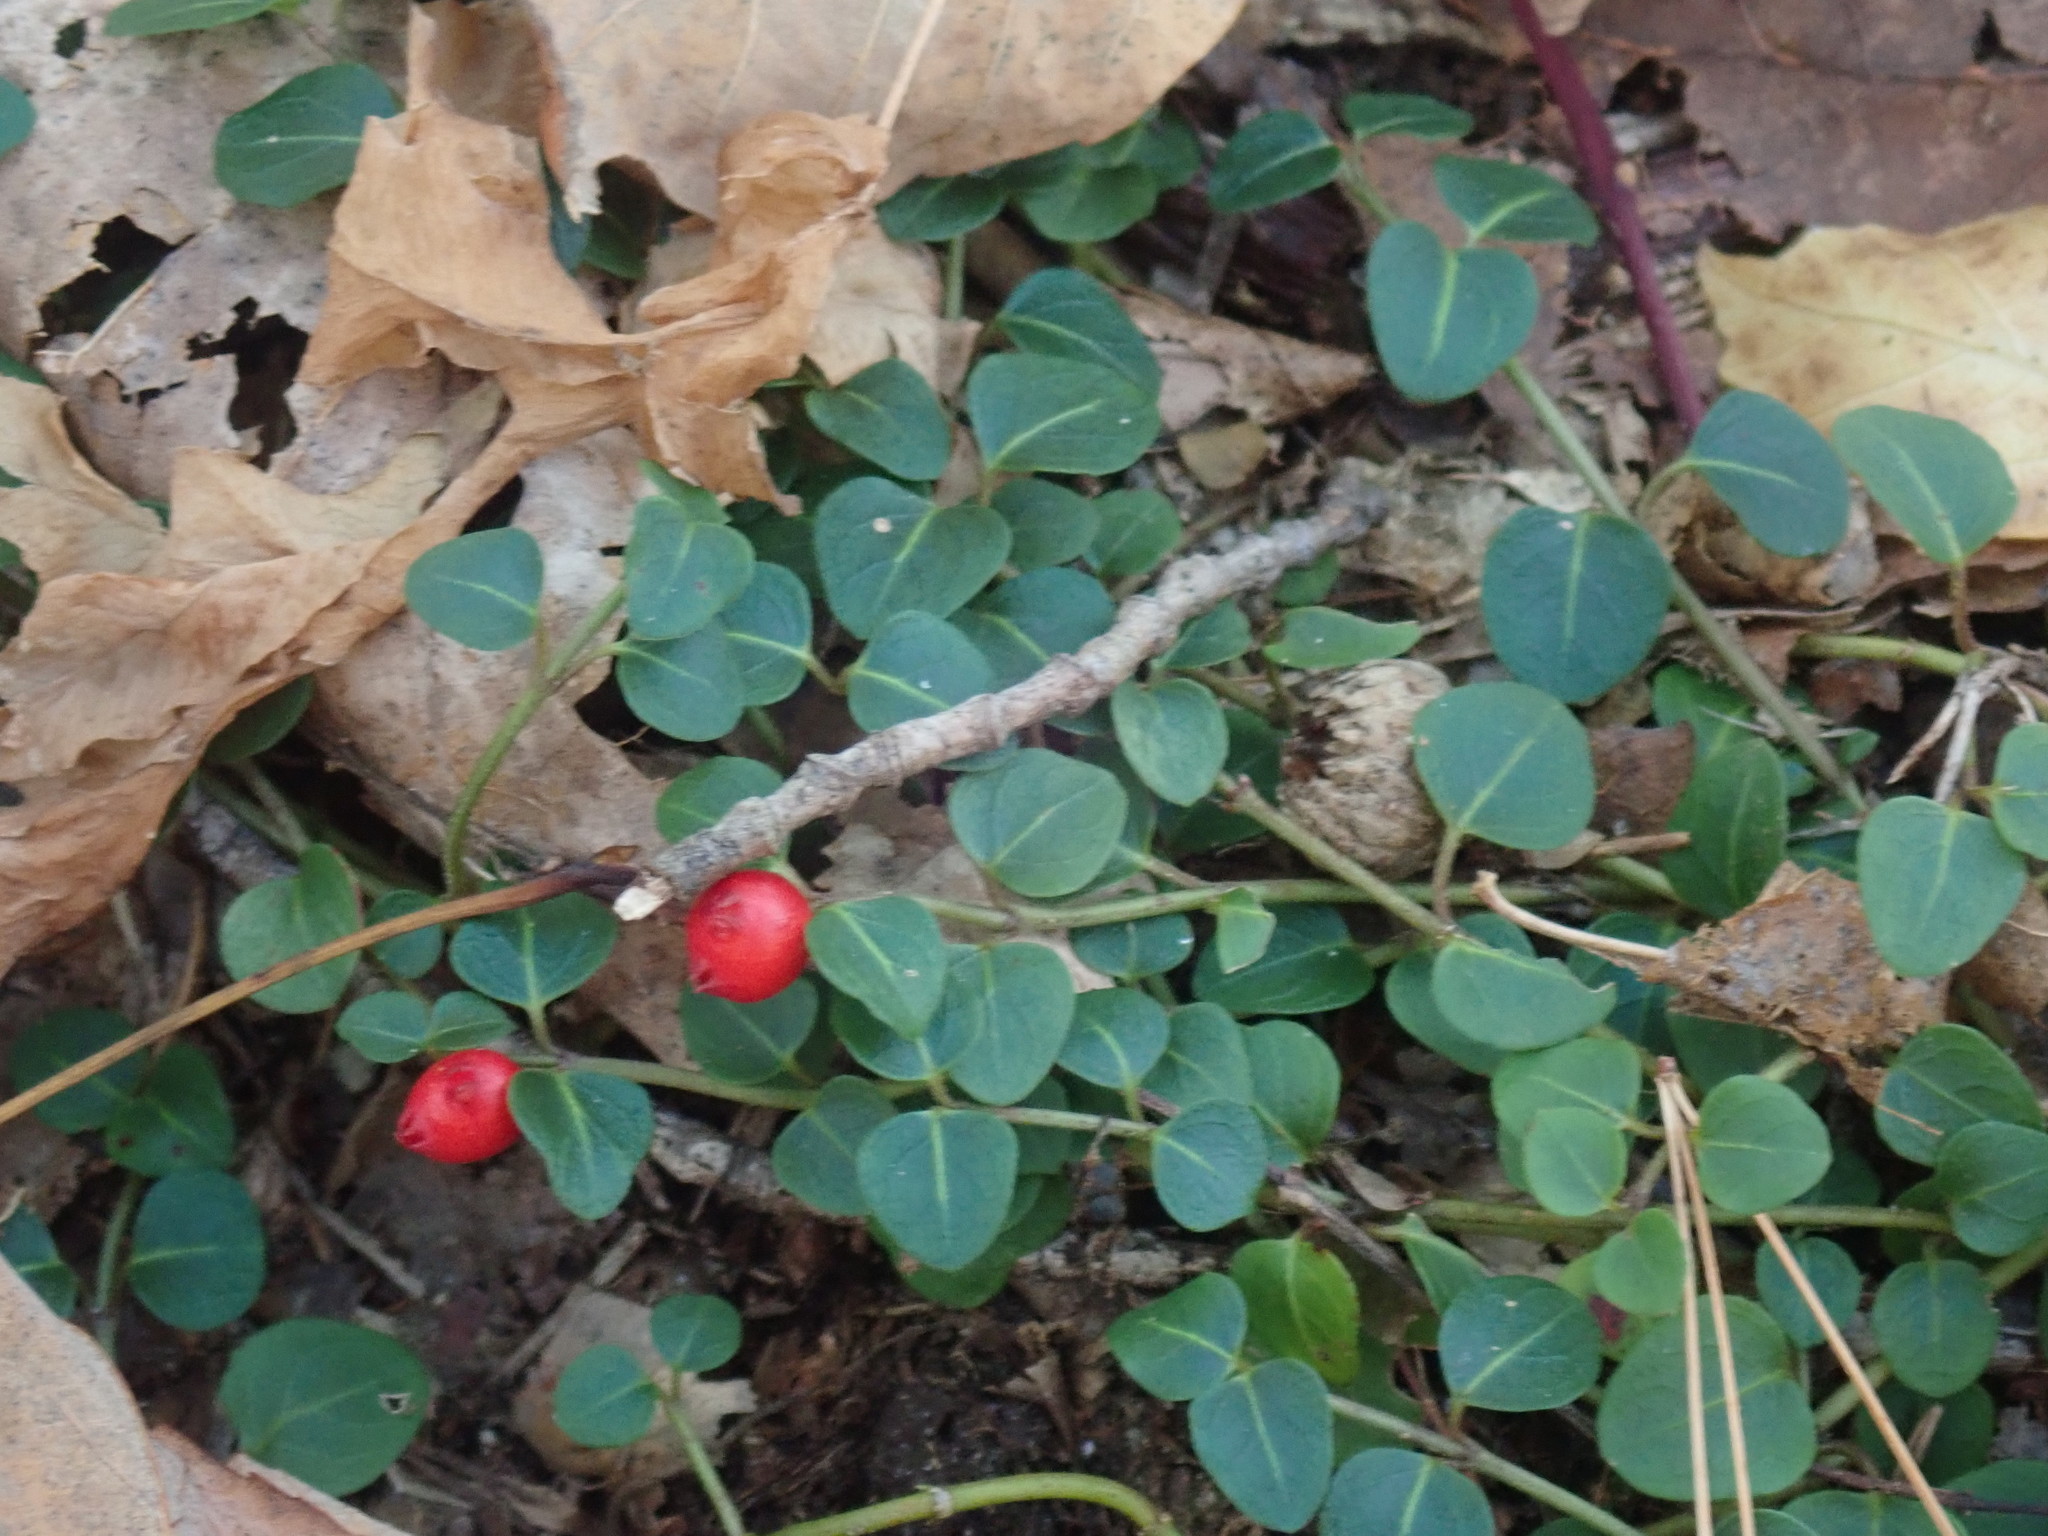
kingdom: Plantae
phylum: Tracheophyta
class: Magnoliopsida
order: Gentianales
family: Rubiaceae
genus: Mitchella
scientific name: Mitchella repens
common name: Partridge-berry
